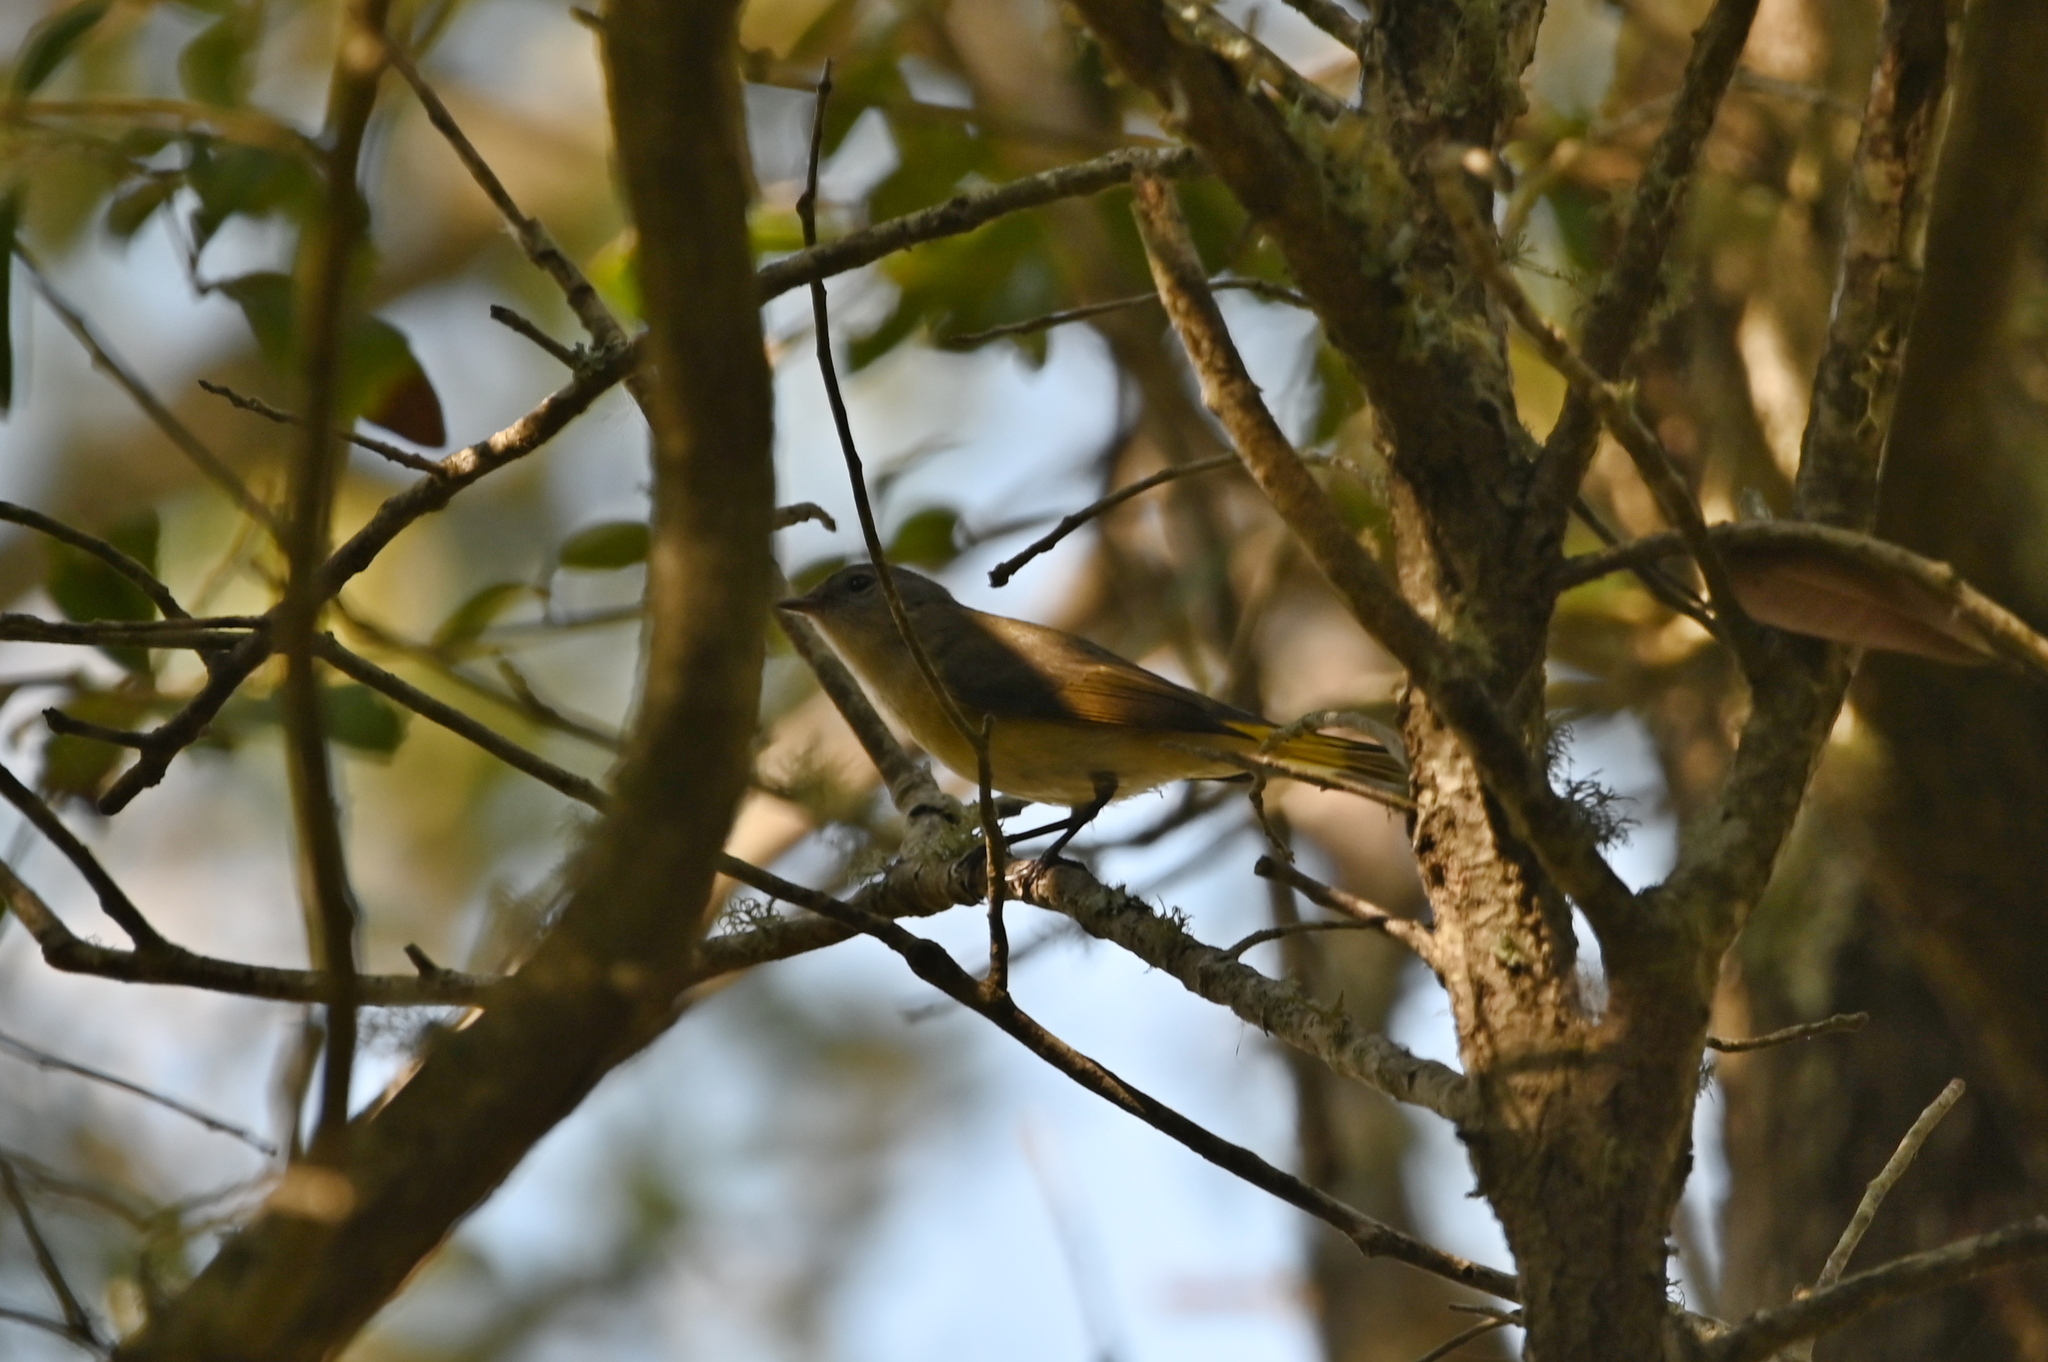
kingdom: Animalia
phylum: Chordata
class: Aves
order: Passeriformes
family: Parulidae
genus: Setophaga
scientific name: Setophaga ruticilla
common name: American redstart
